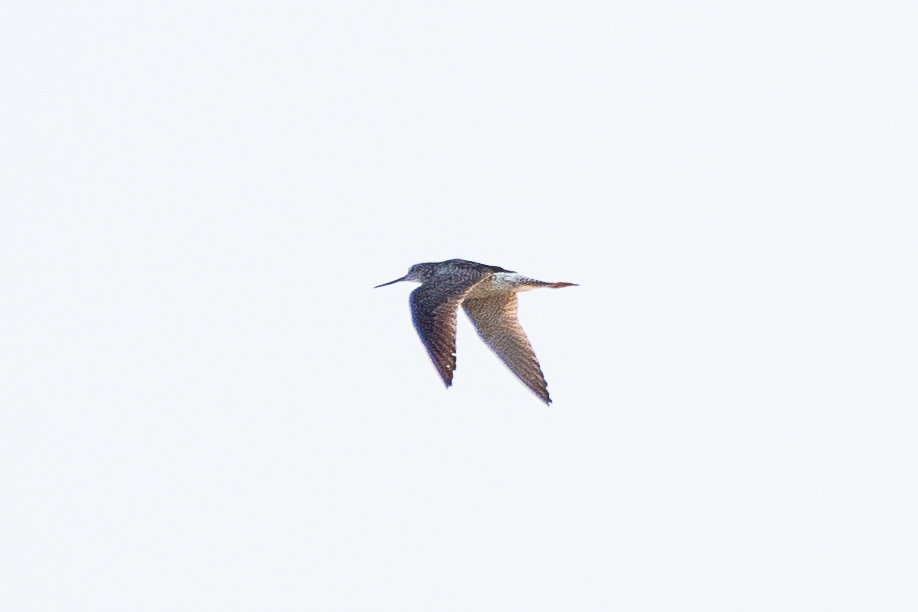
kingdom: Animalia
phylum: Chordata
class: Aves
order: Charadriiformes
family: Scolopacidae
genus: Tringa
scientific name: Tringa melanoleuca
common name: Greater yellowlegs
